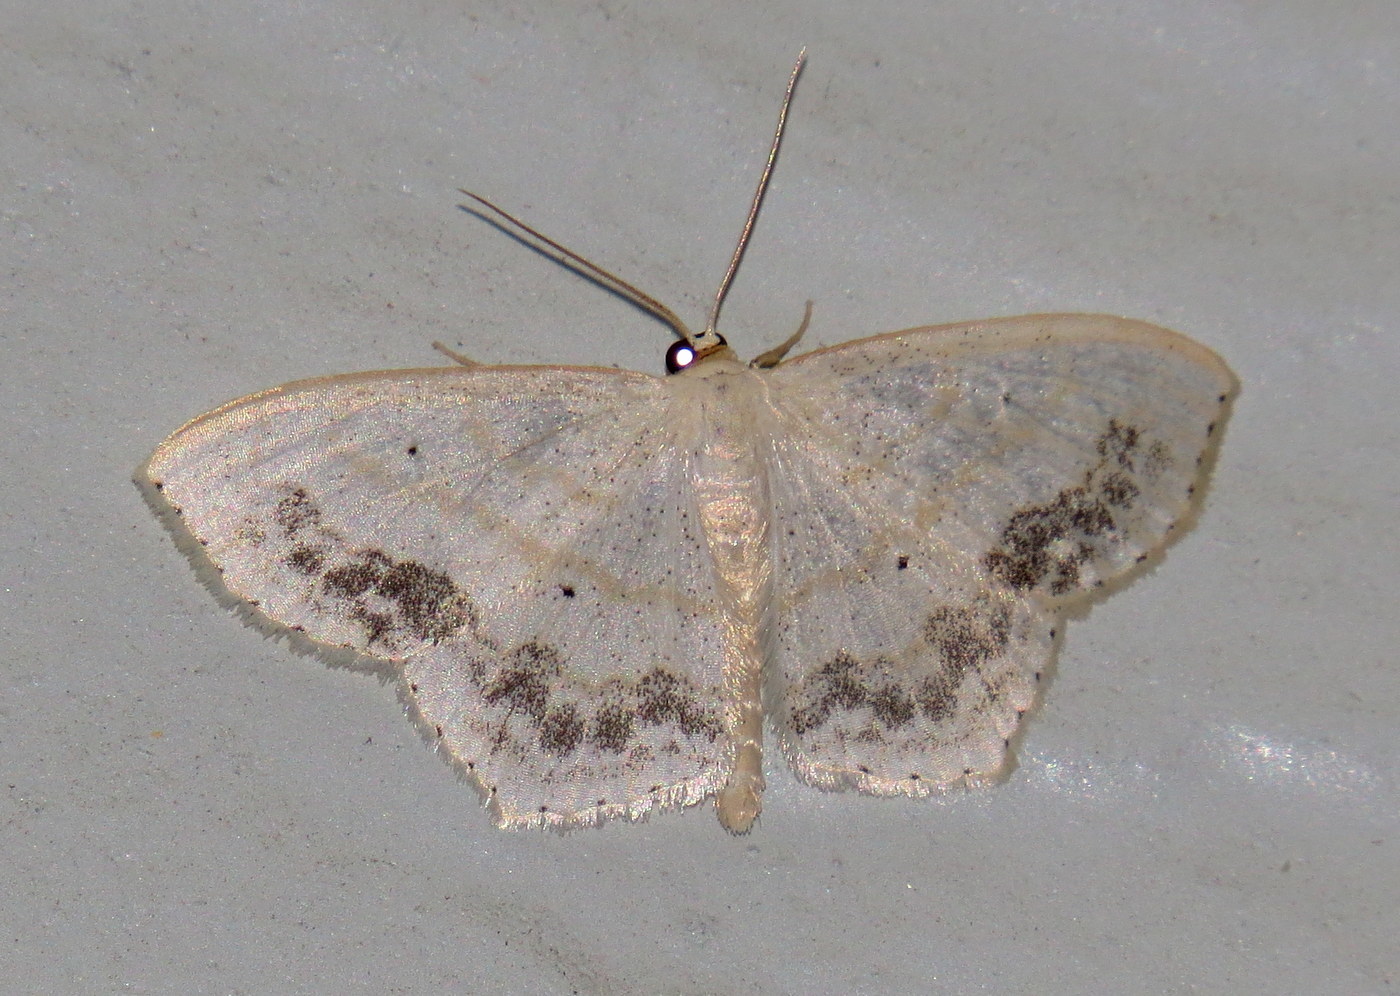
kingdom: Animalia
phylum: Arthropoda
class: Insecta
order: Lepidoptera
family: Geometridae
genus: Scopula
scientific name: Scopula limboundata
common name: Large lace border
